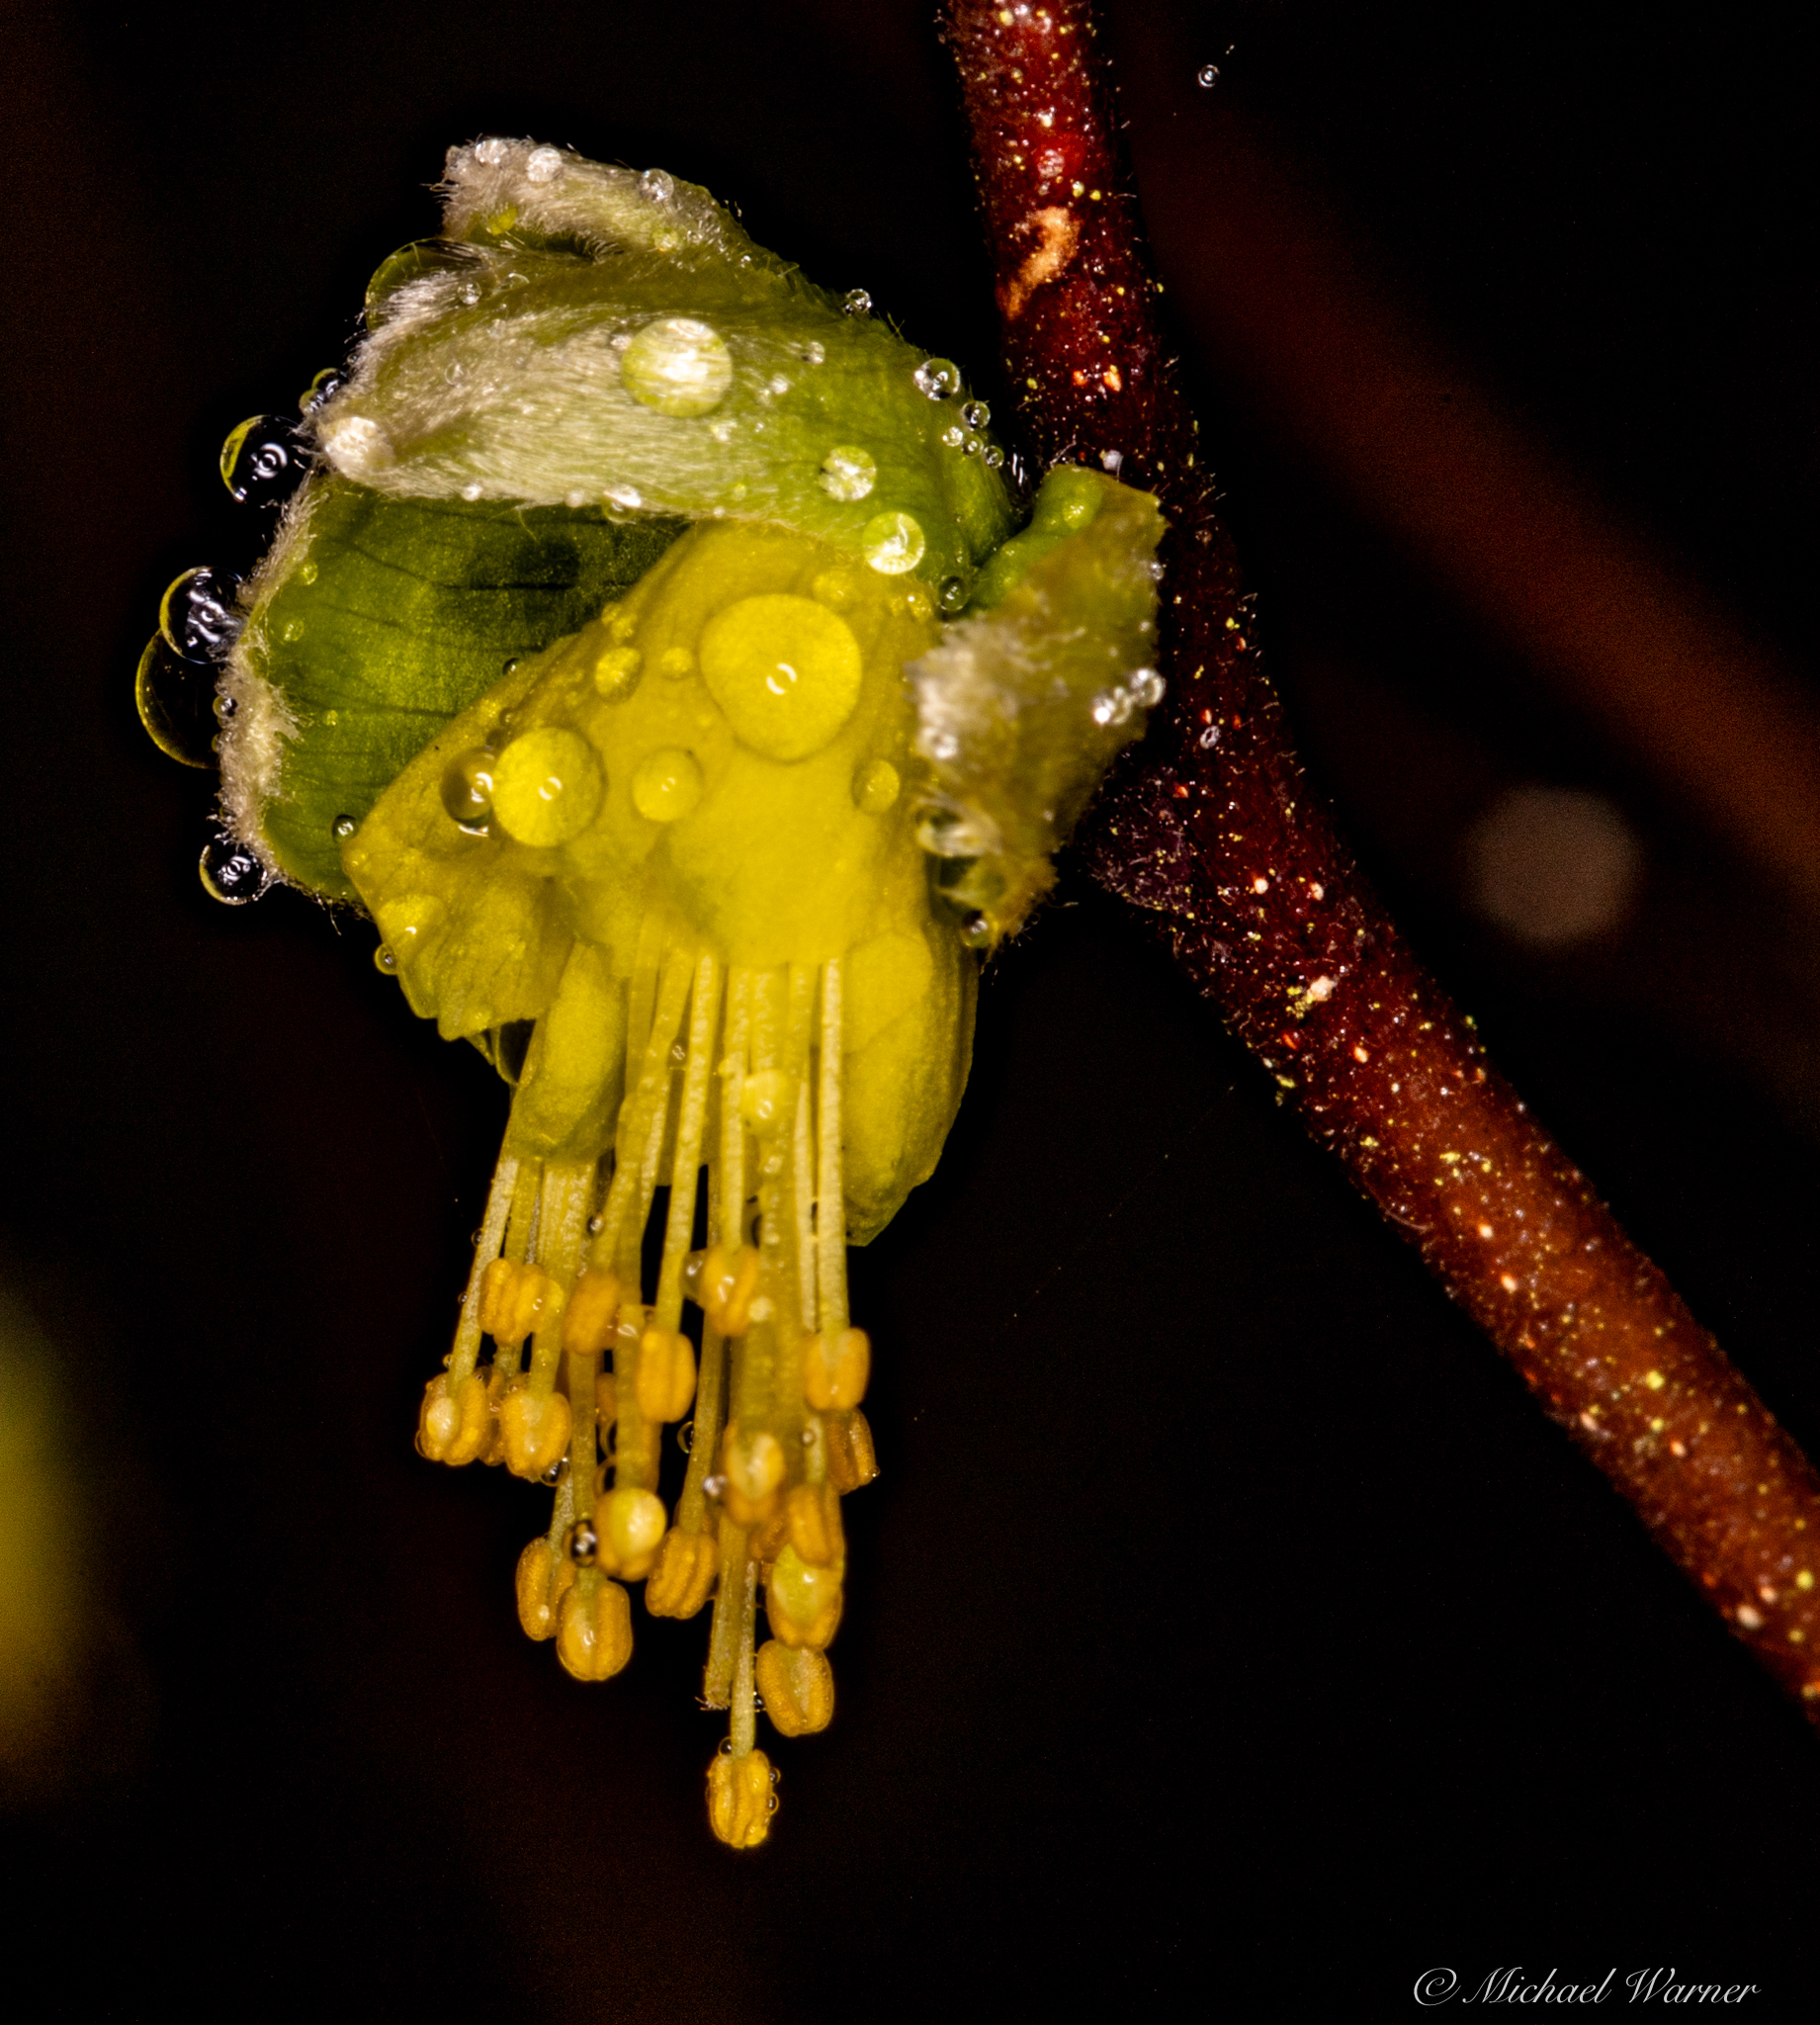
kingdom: Plantae
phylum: Tracheophyta
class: Magnoliopsida
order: Malvales
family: Thymelaeaceae
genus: Dirca
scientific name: Dirca occidentalis
